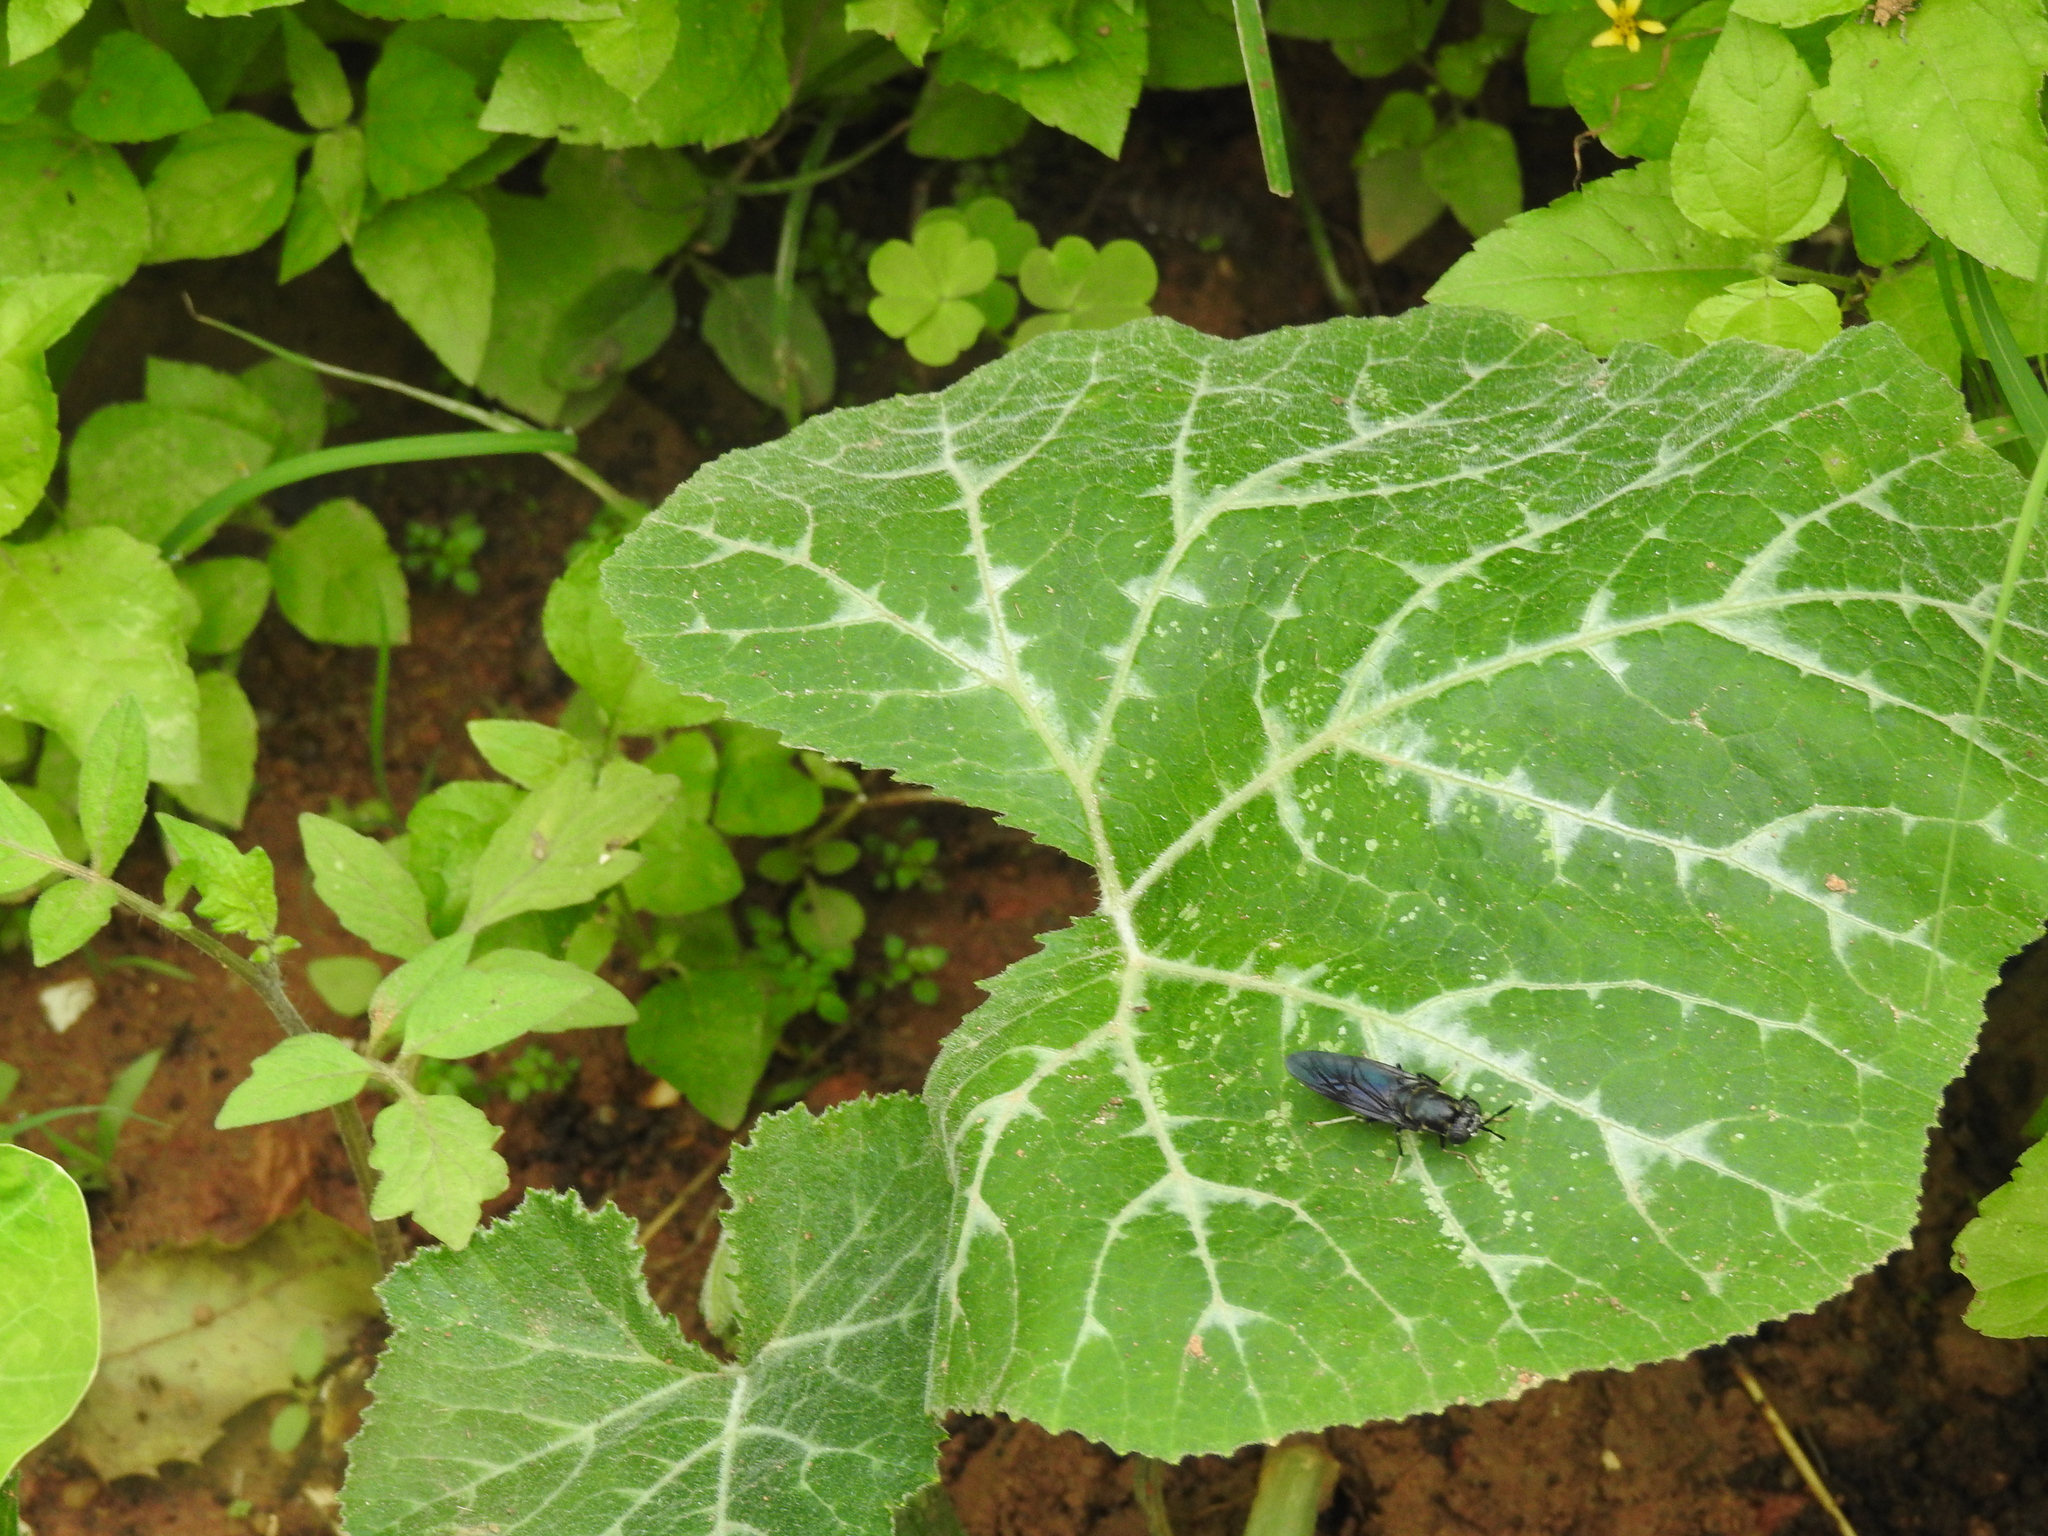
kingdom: Animalia
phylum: Arthropoda
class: Insecta
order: Diptera
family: Stratiomyidae
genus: Hermetia
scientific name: Hermetia illucens
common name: Black soldier fly
